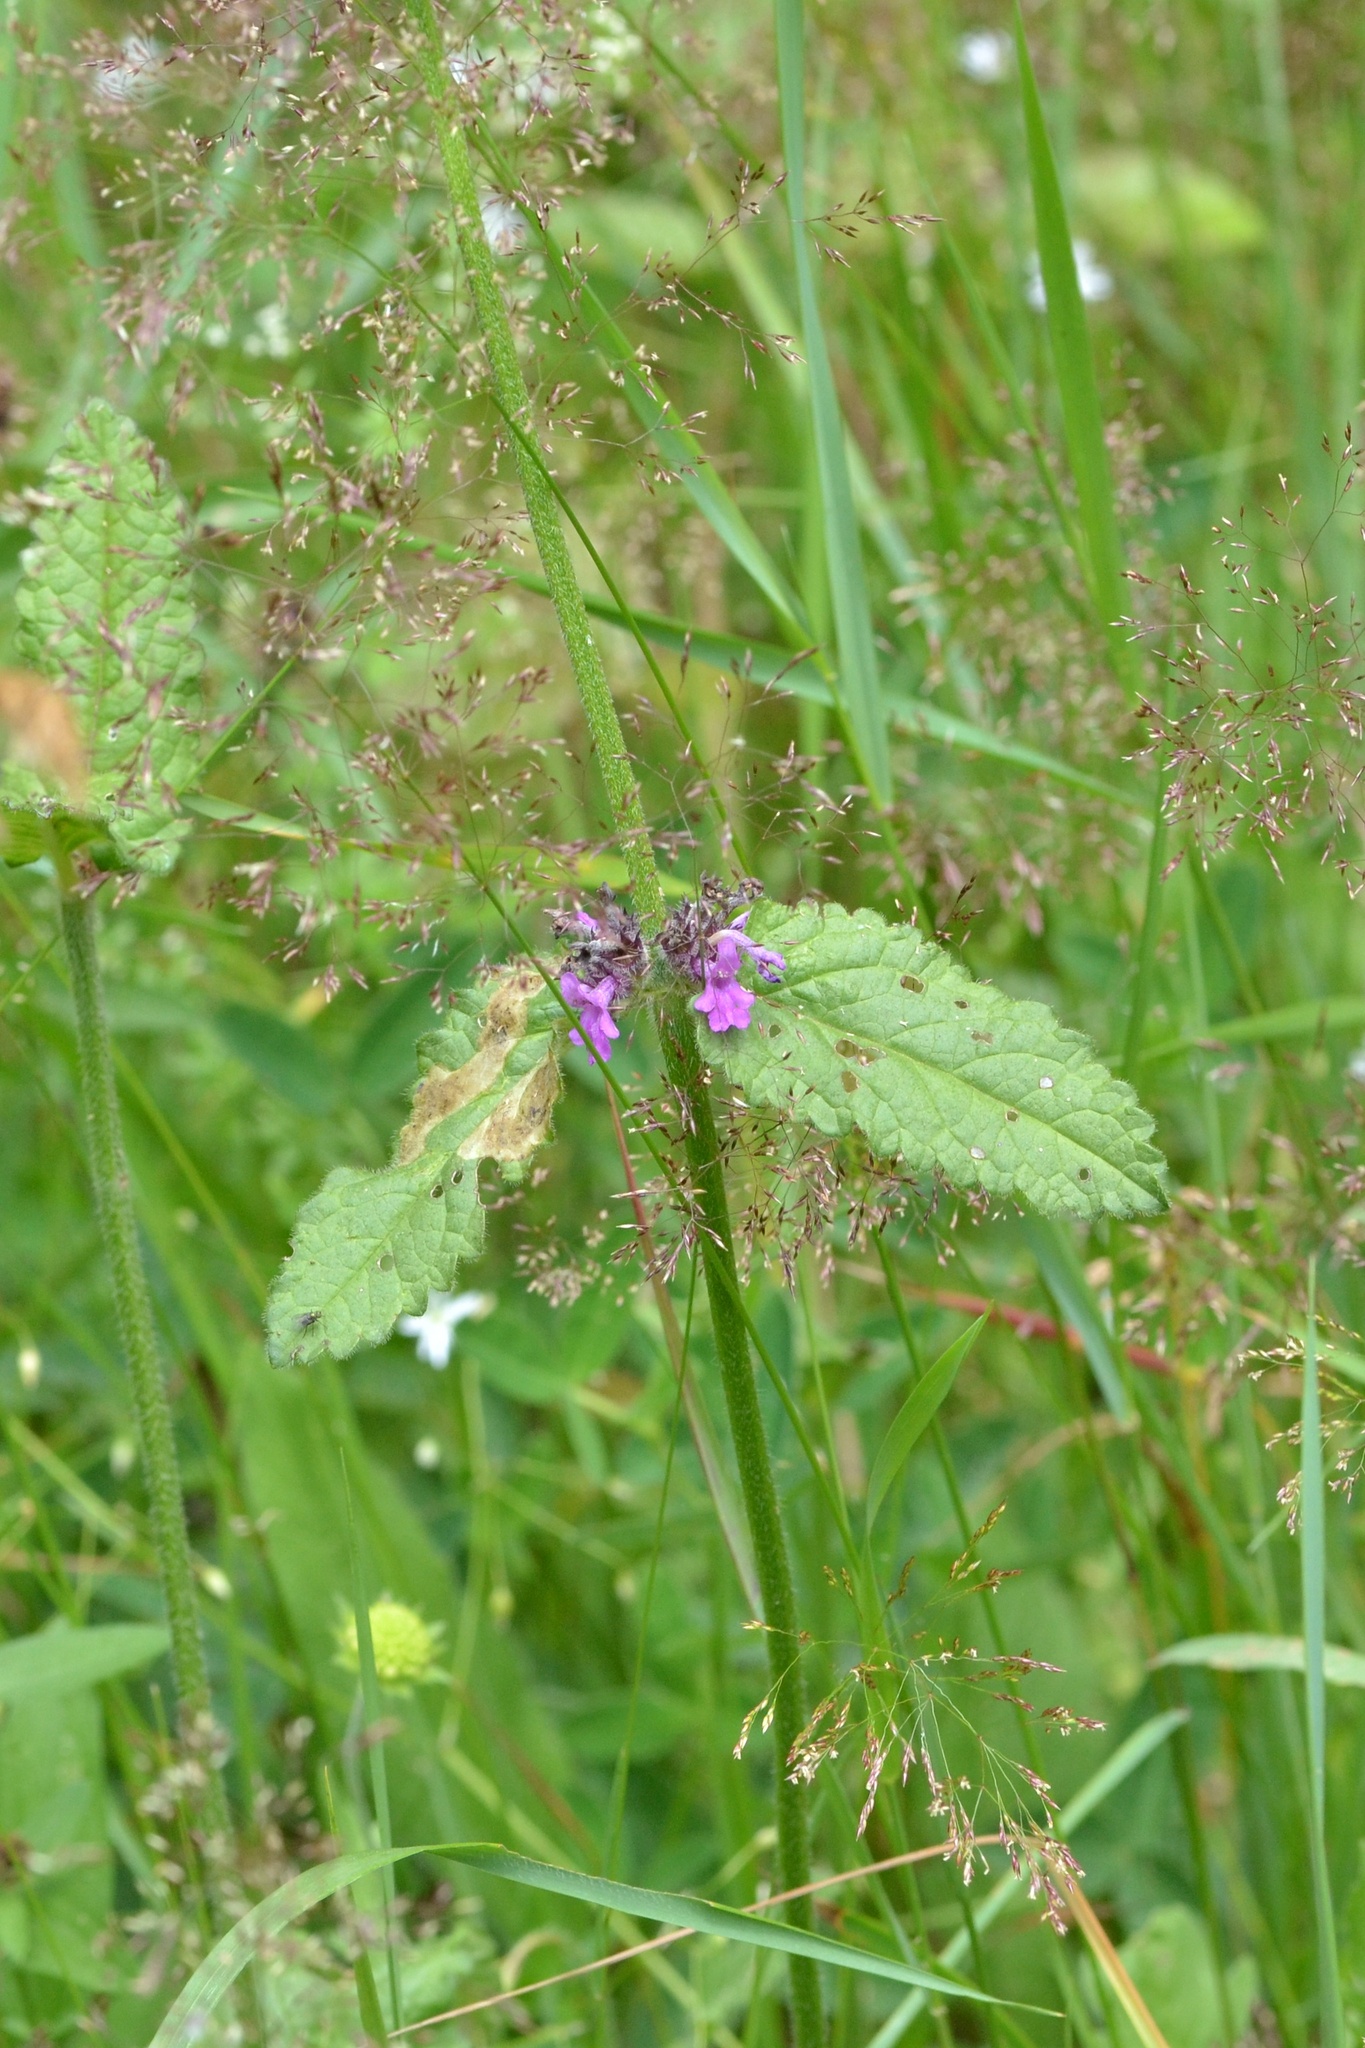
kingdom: Plantae
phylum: Tracheophyta
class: Magnoliopsida
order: Lamiales
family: Lamiaceae
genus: Betonica
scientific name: Betonica officinalis
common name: Bishop's-wort
